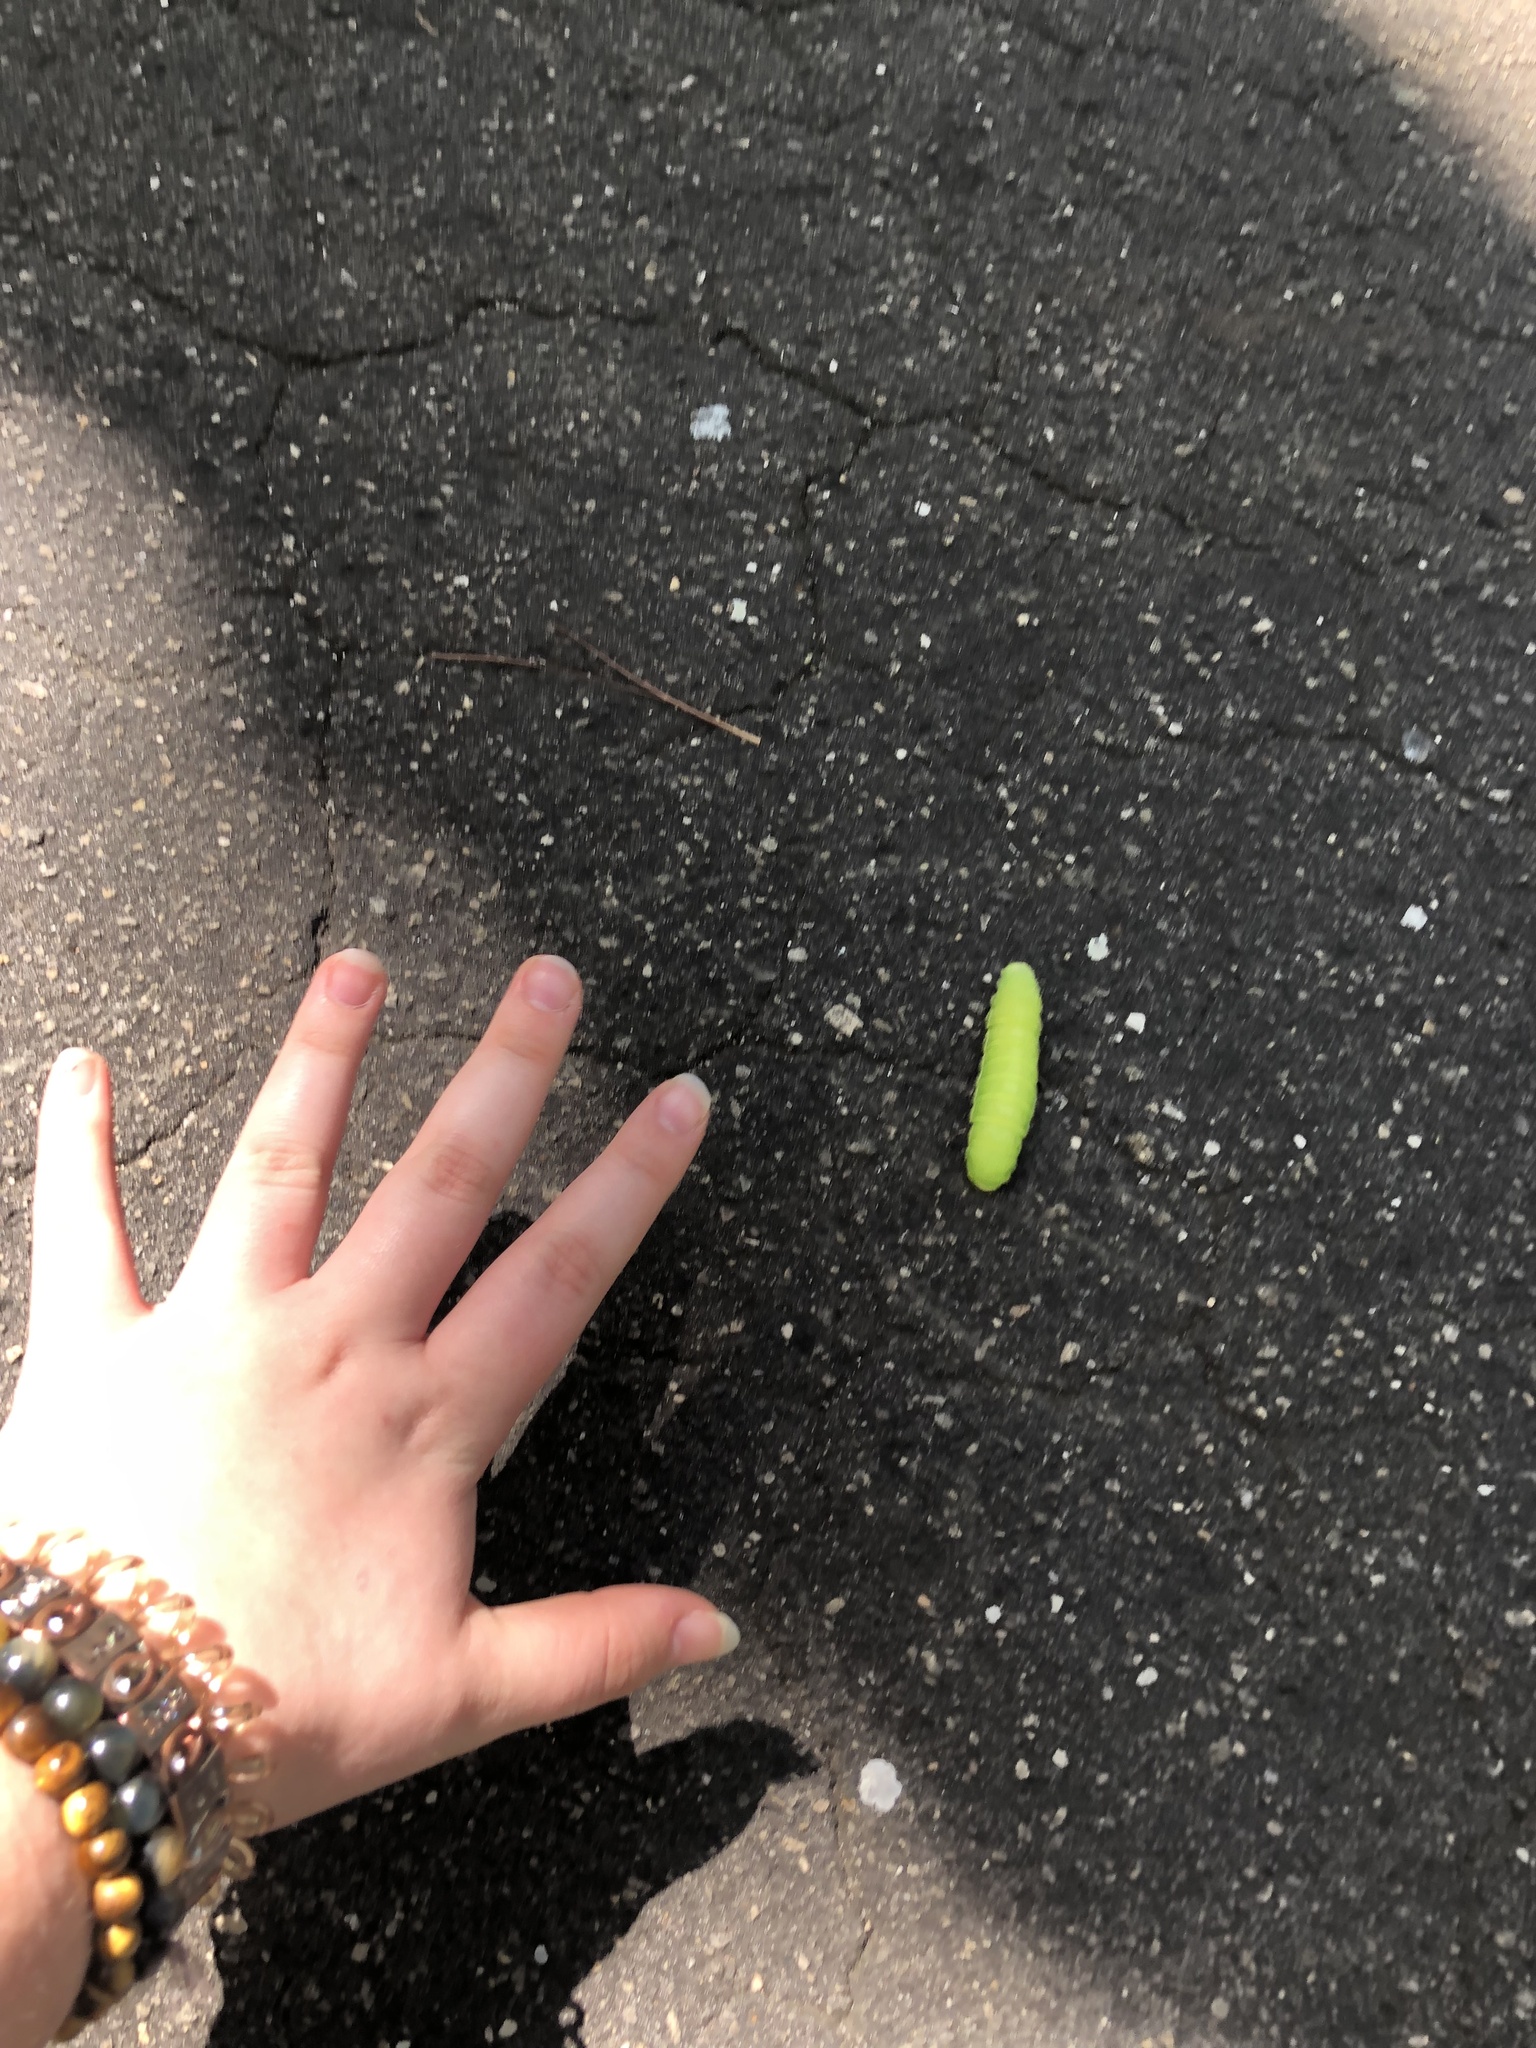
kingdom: Animalia
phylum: Arthropoda
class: Insecta
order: Lepidoptera
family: Saturniidae
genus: Actias
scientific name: Actias luna
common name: Luna moth
